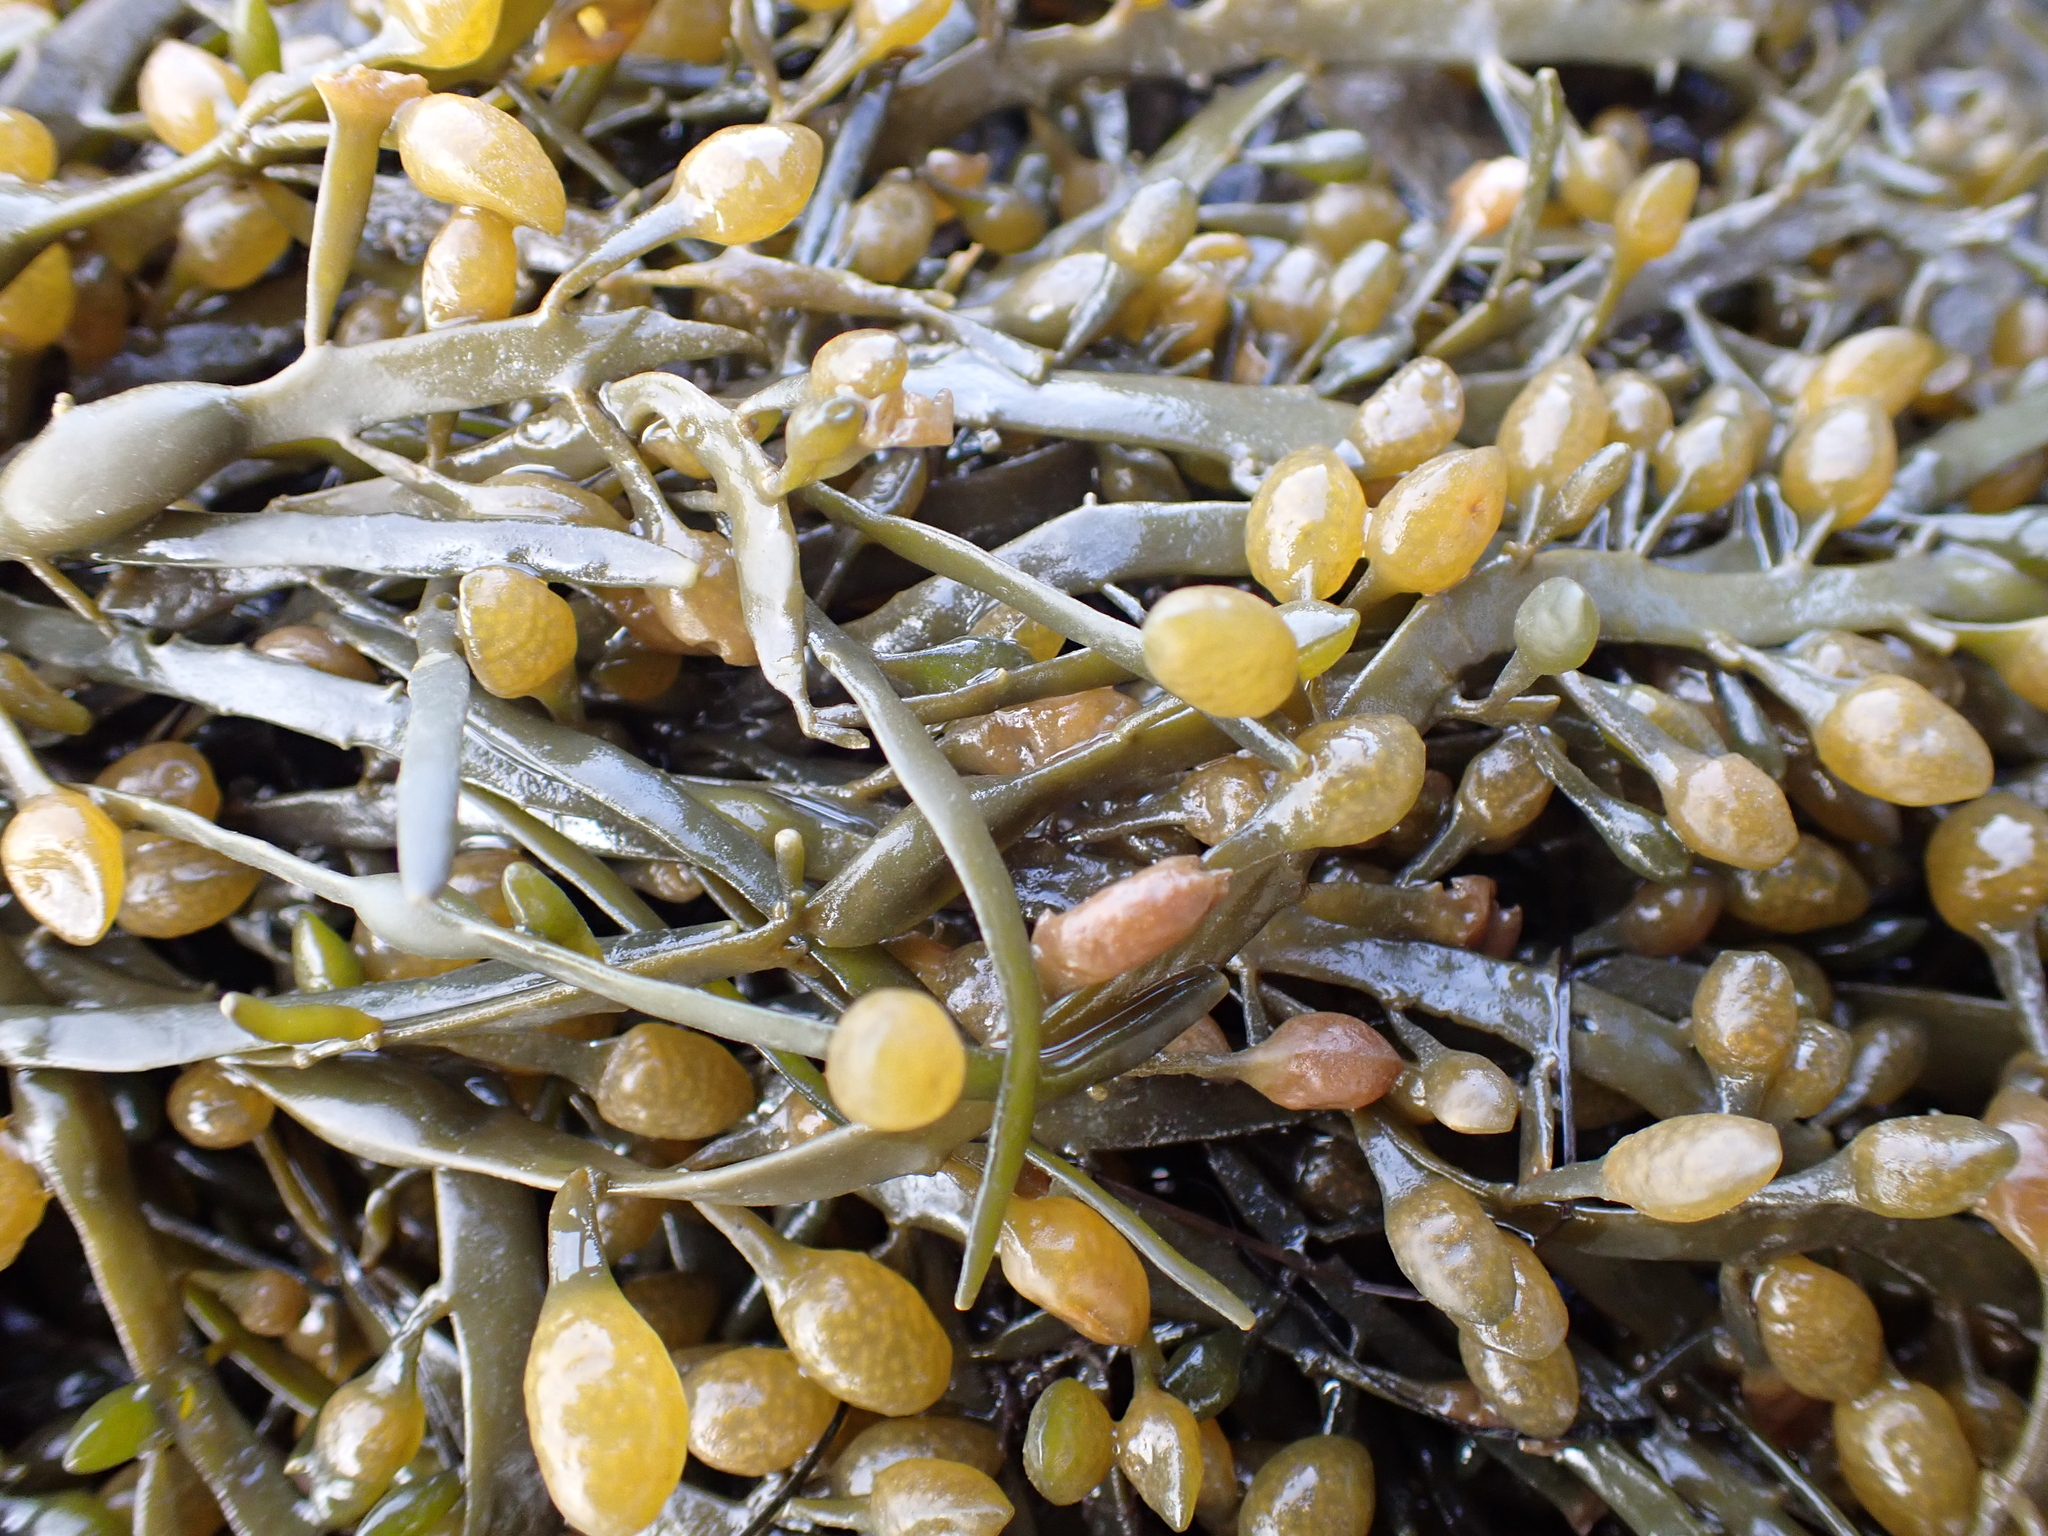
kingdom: Chromista
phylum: Ochrophyta
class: Phaeophyceae
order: Fucales
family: Fucaceae
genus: Ascophyllum
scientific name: Ascophyllum nodosum
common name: Knotted wrack
